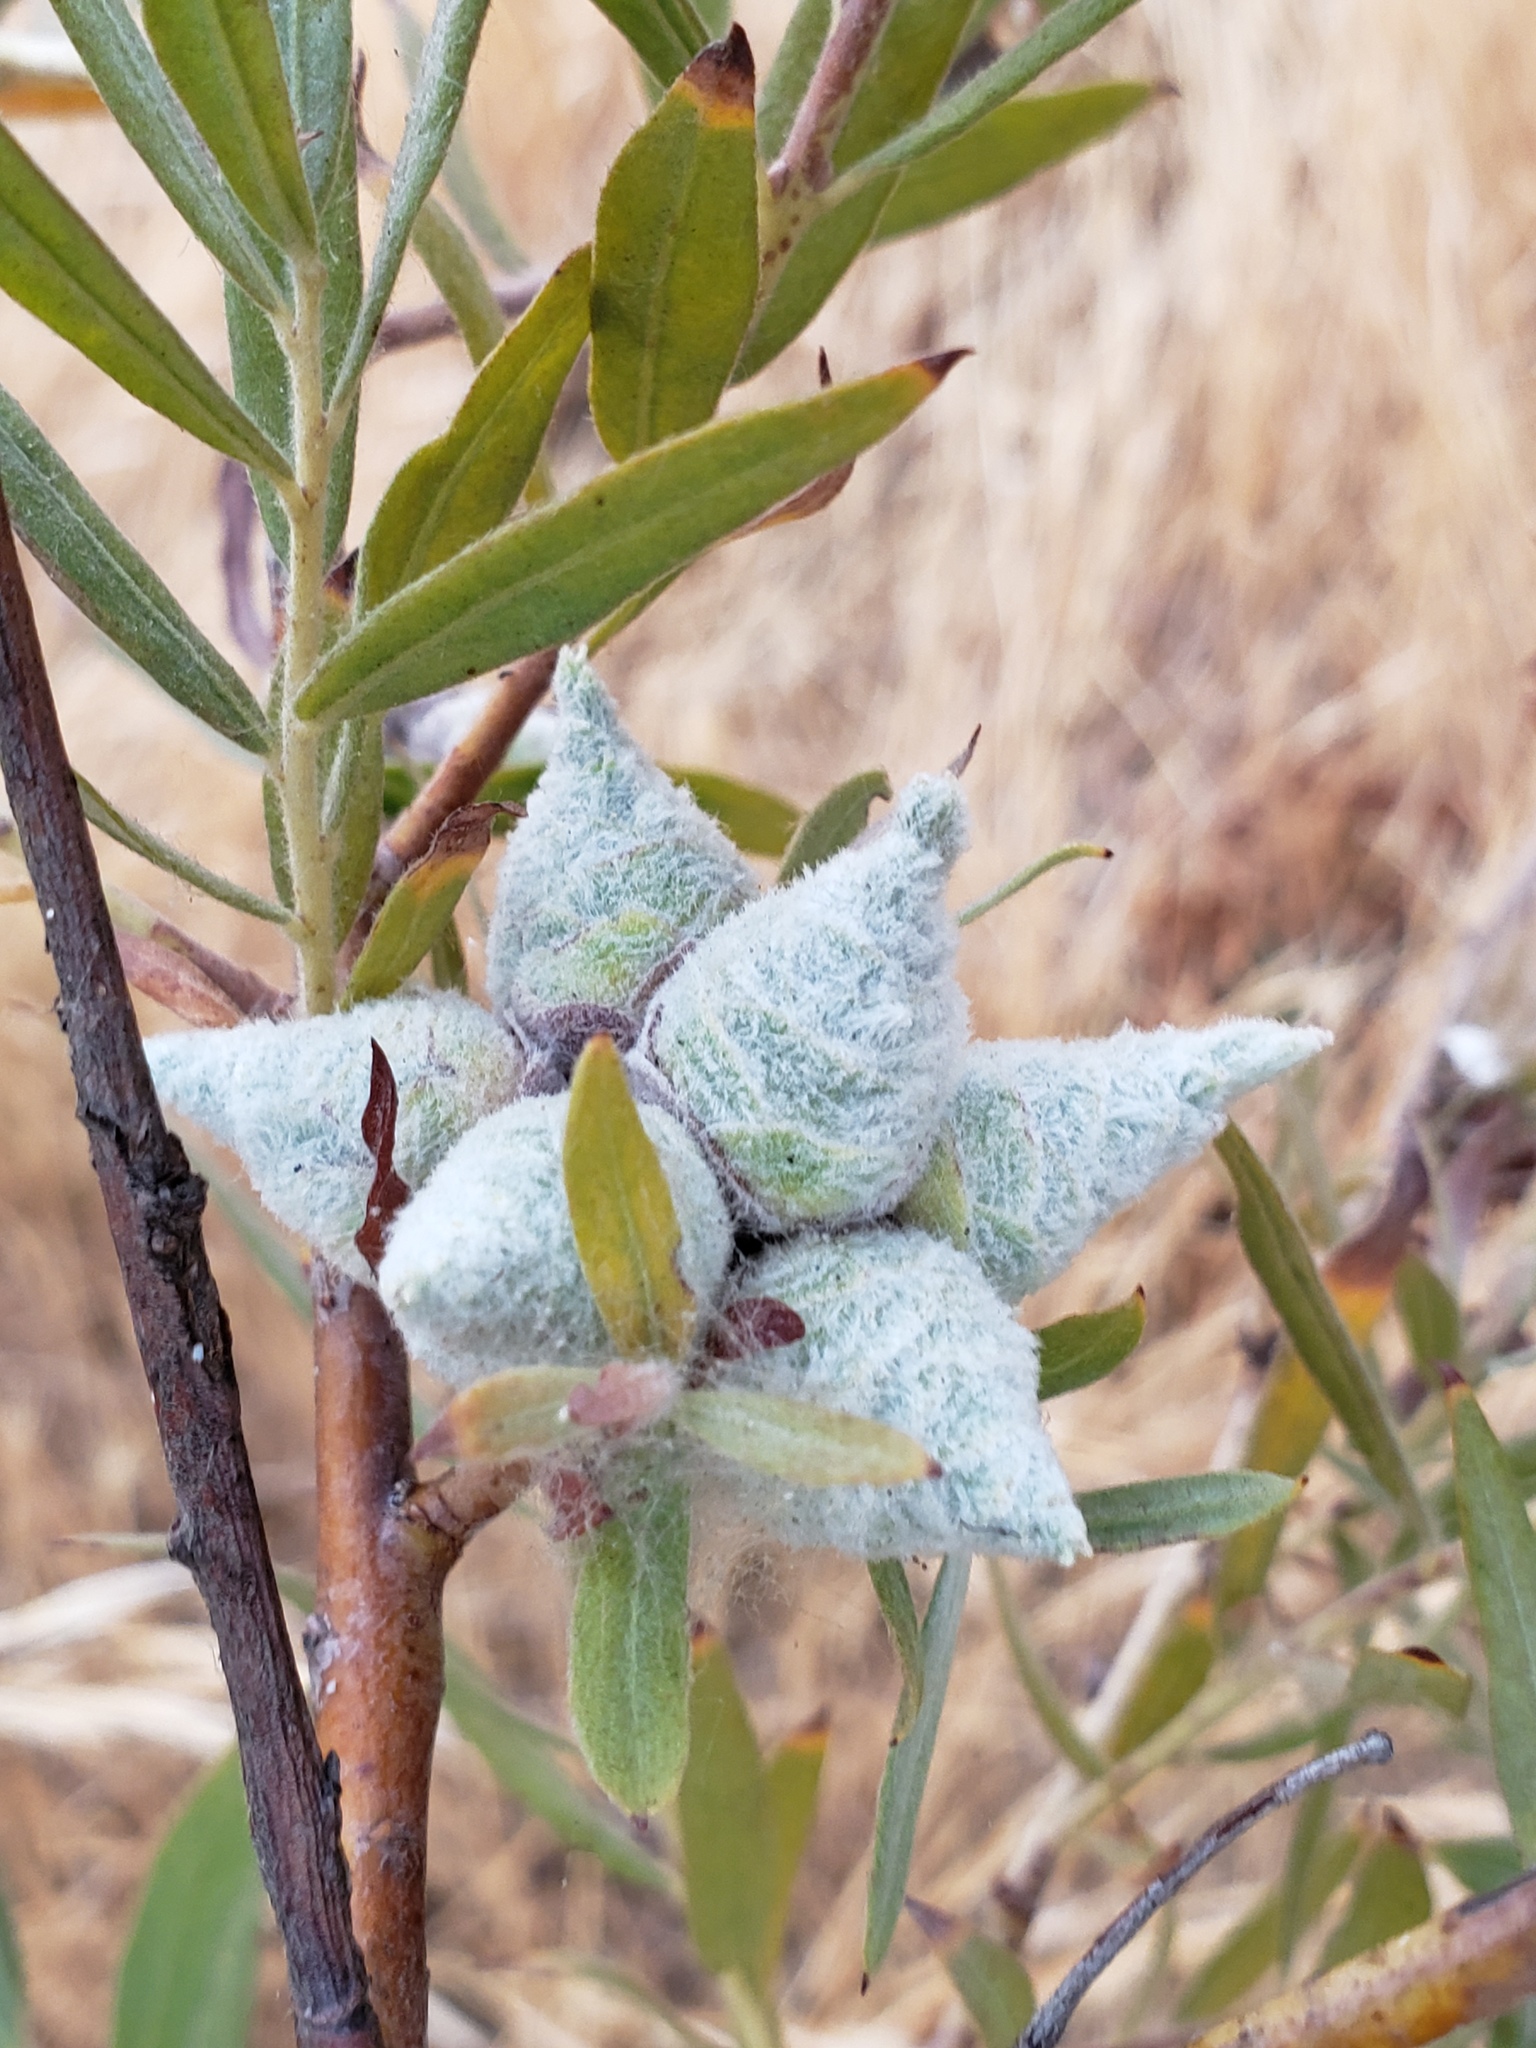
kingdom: Animalia
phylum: Arthropoda
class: Insecta
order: Diptera
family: Cecidomyiidae
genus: Rabdophaga
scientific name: Rabdophaga strobiloides
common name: Willow pinecone gall midge
